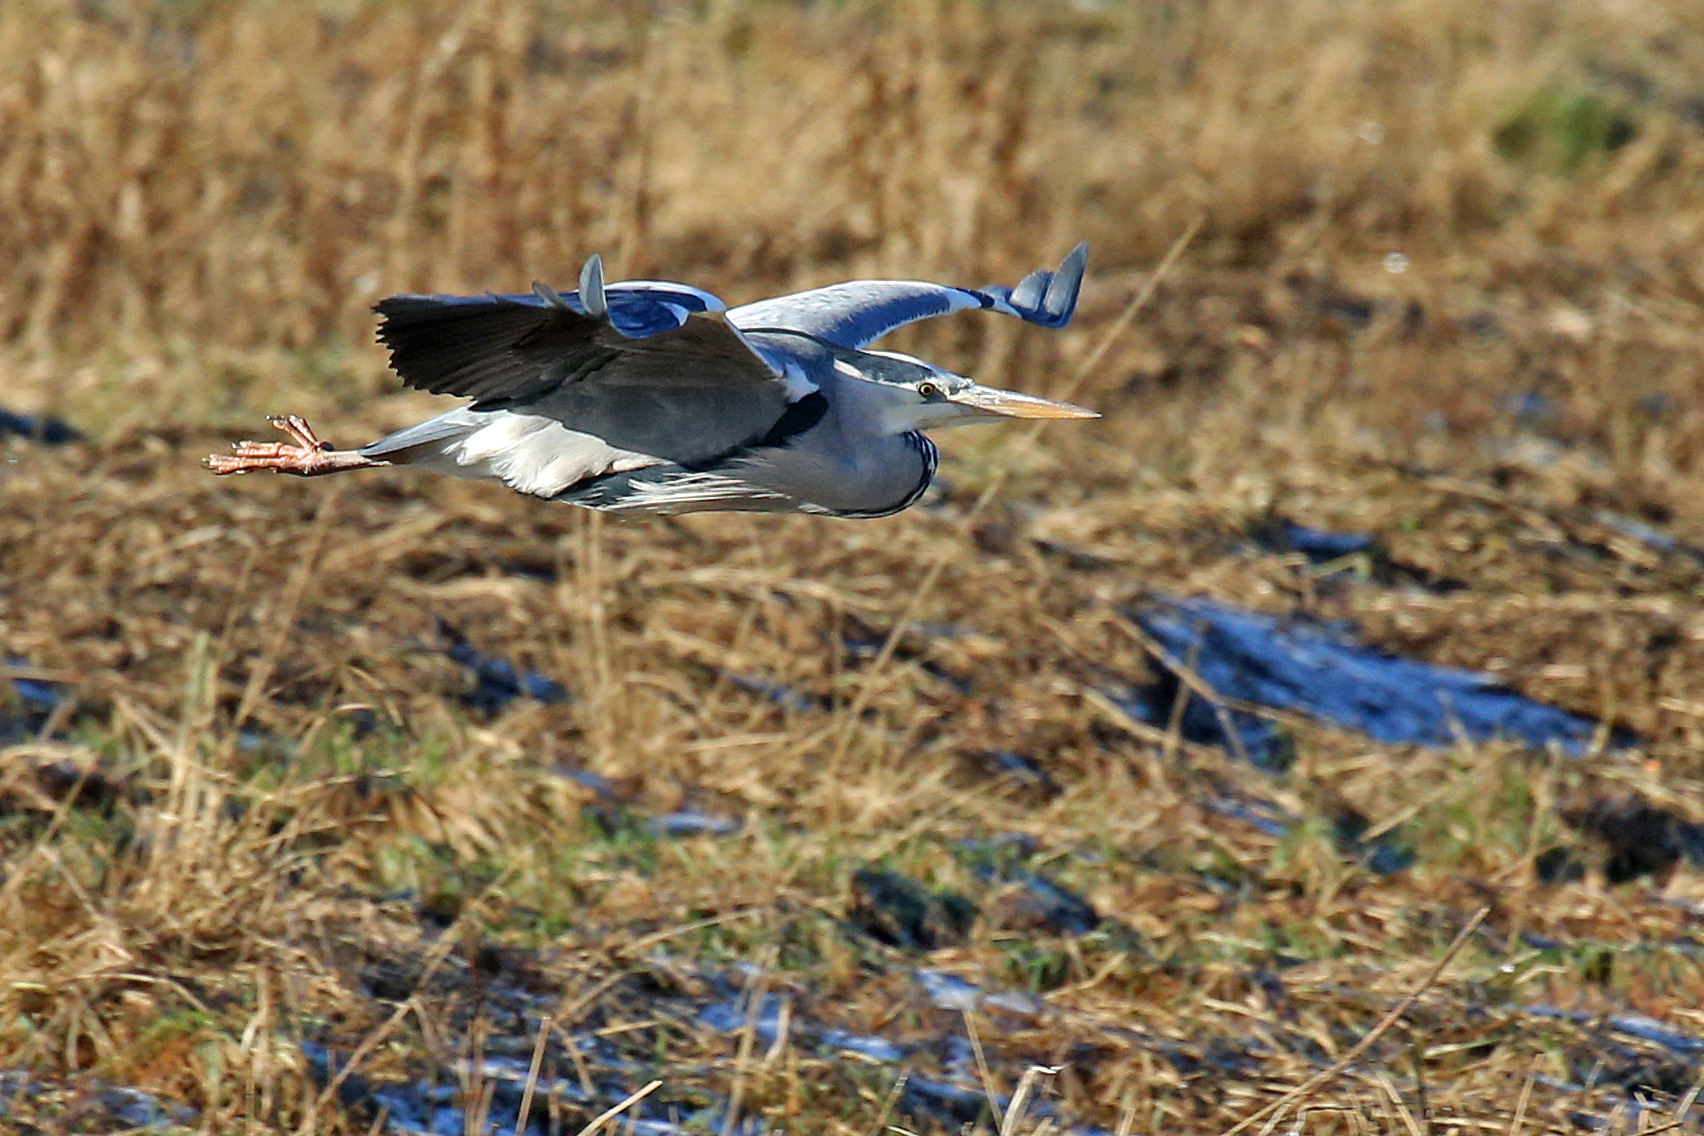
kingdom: Animalia
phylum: Chordata
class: Aves
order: Pelecaniformes
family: Ardeidae
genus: Ardea
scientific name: Ardea cinerea
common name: Grey heron
